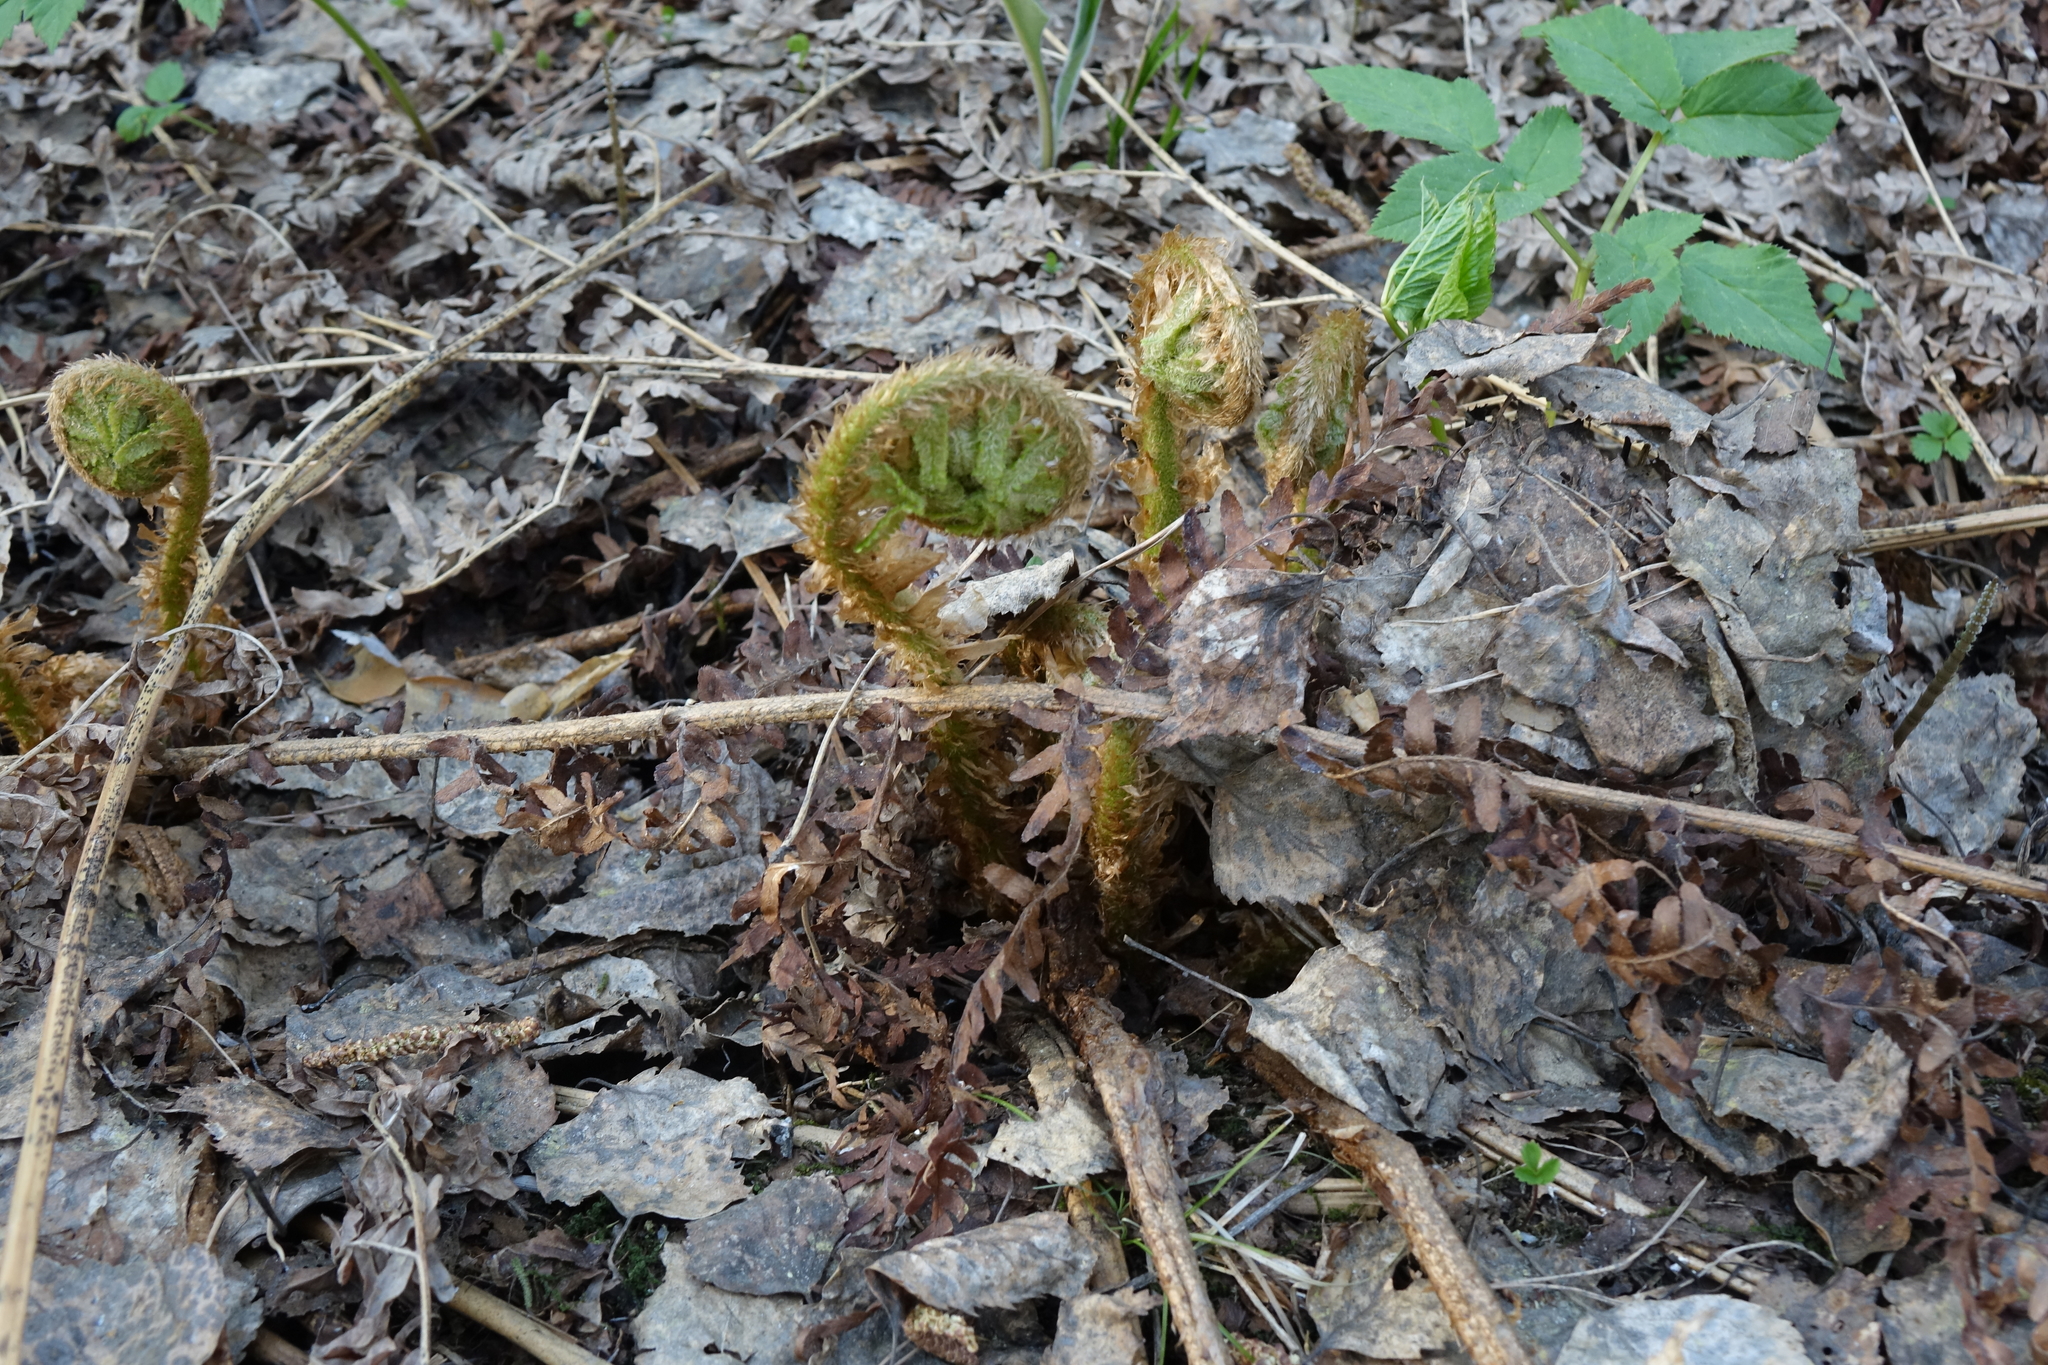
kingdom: Plantae
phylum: Tracheophyta
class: Polypodiopsida
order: Polypodiales
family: Dryopteridaceae
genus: Dryopteris
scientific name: Dryopteris filix-mas
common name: Male fern
